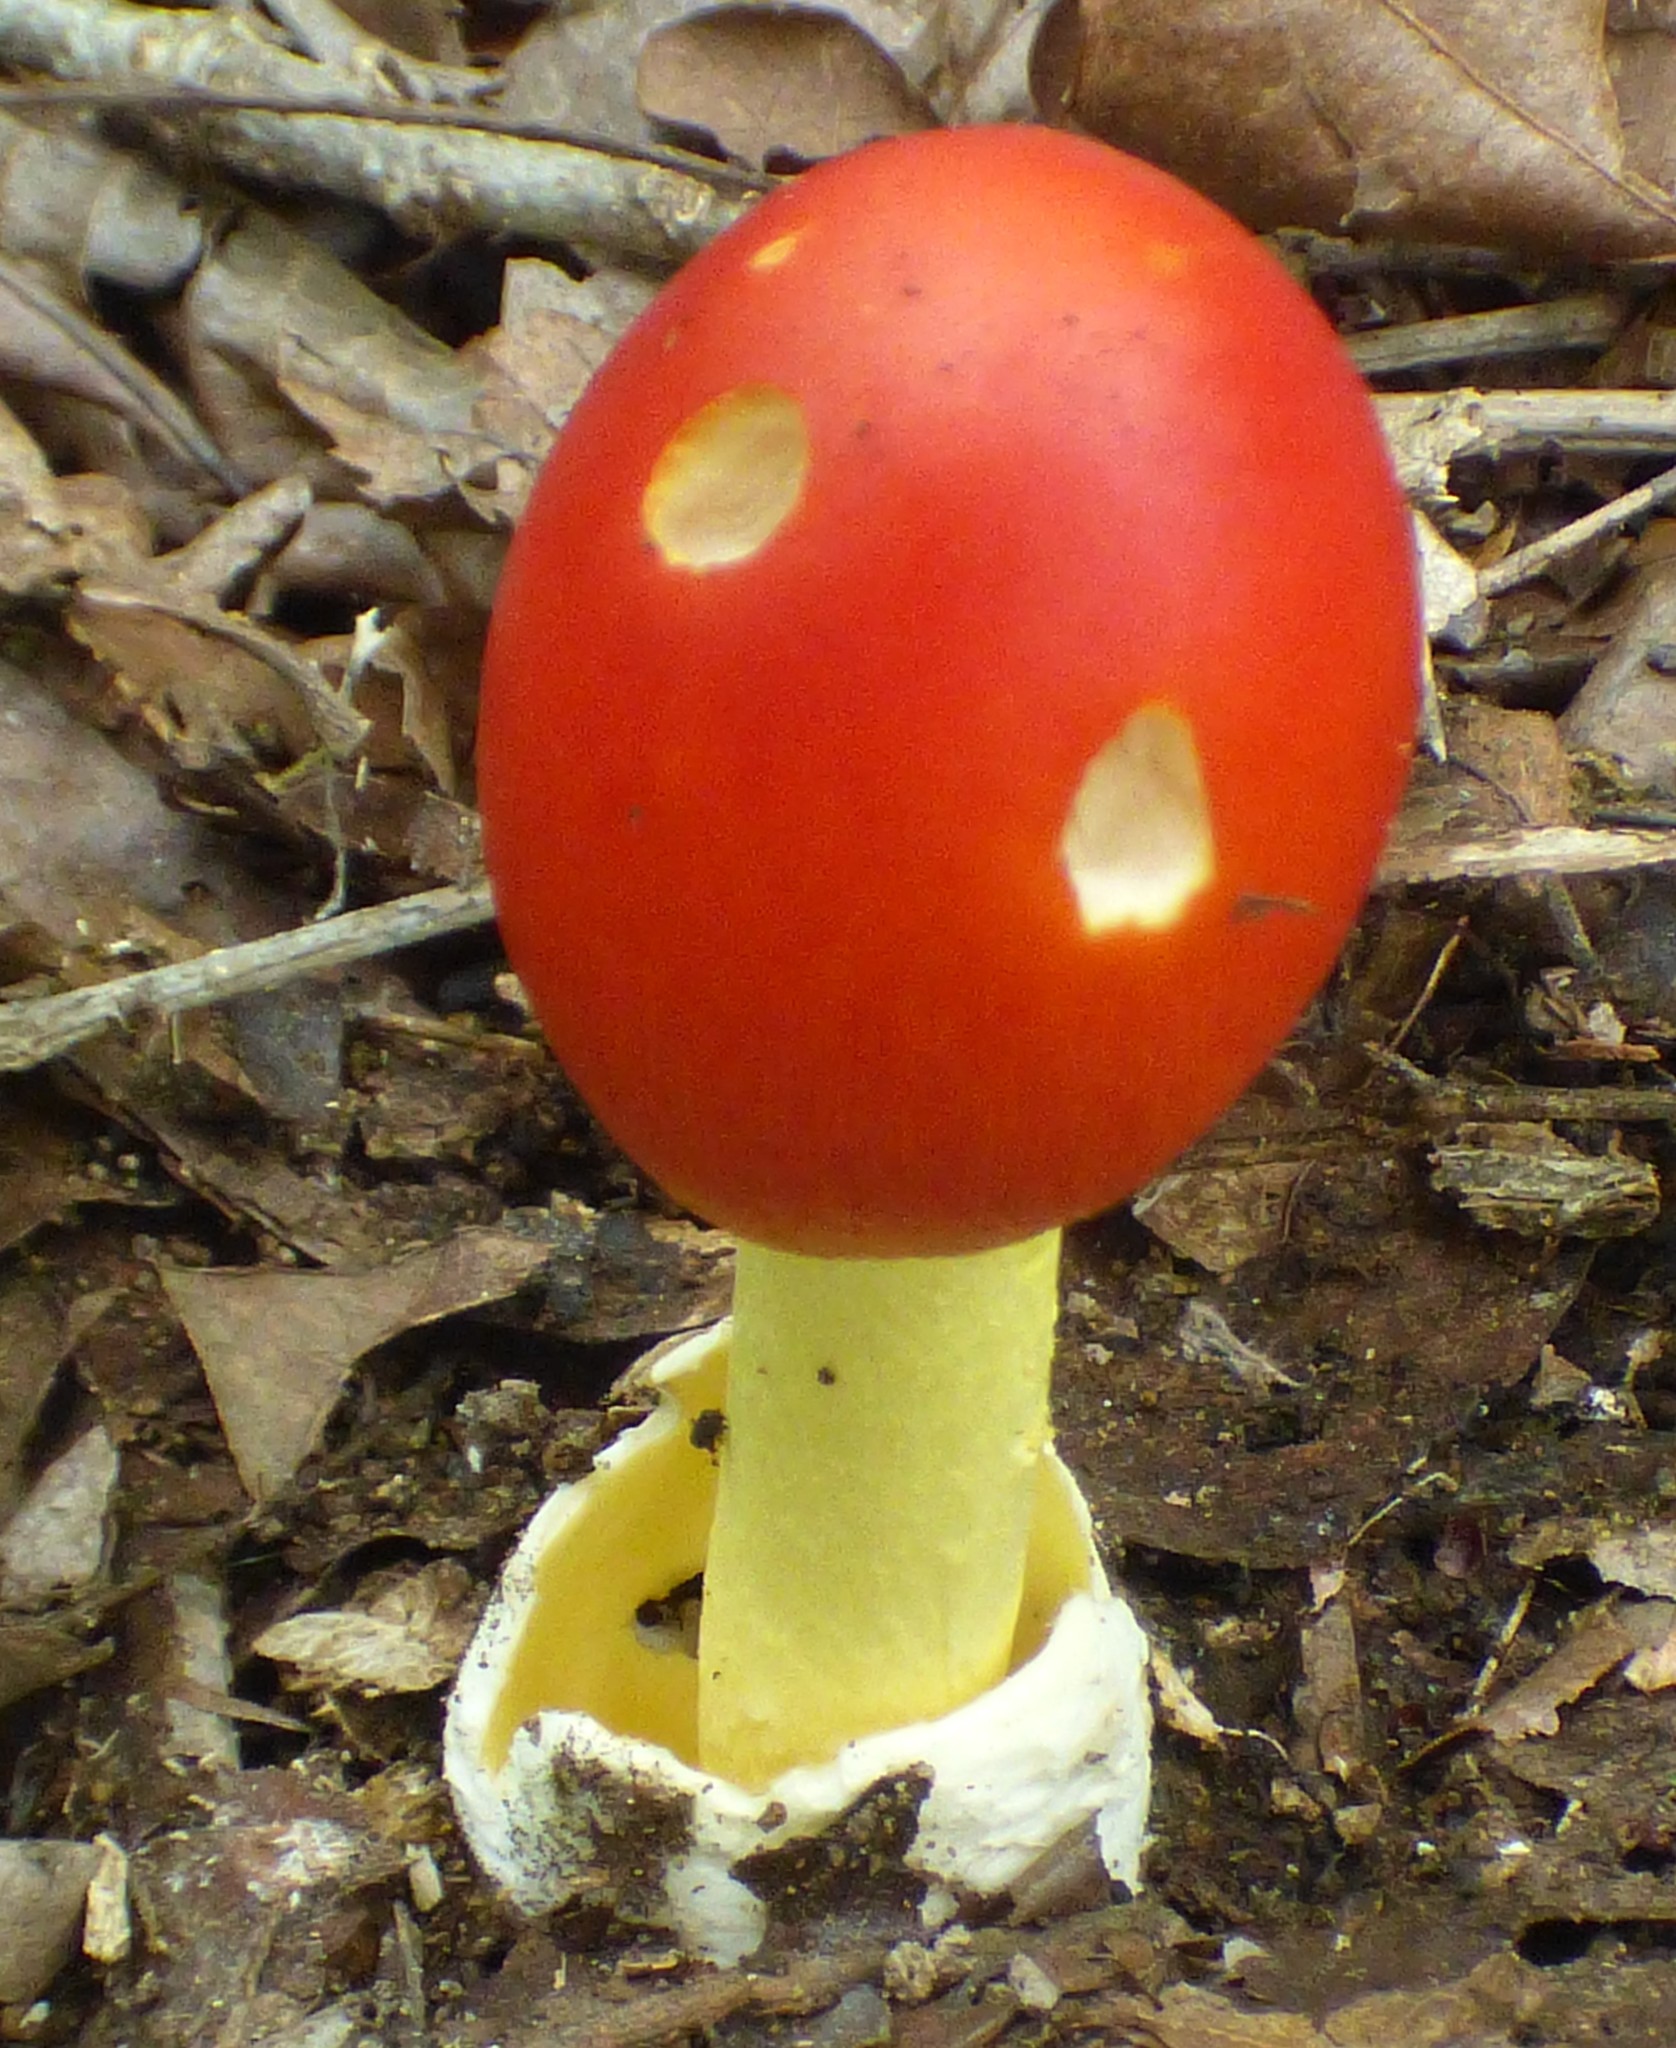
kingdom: Fungi
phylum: Basidiomycota
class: Agaricomycetes
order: Agaricales
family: Amanitaceae
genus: Amanita
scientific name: Amanita jacksonii
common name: Jackson's slender caesar
